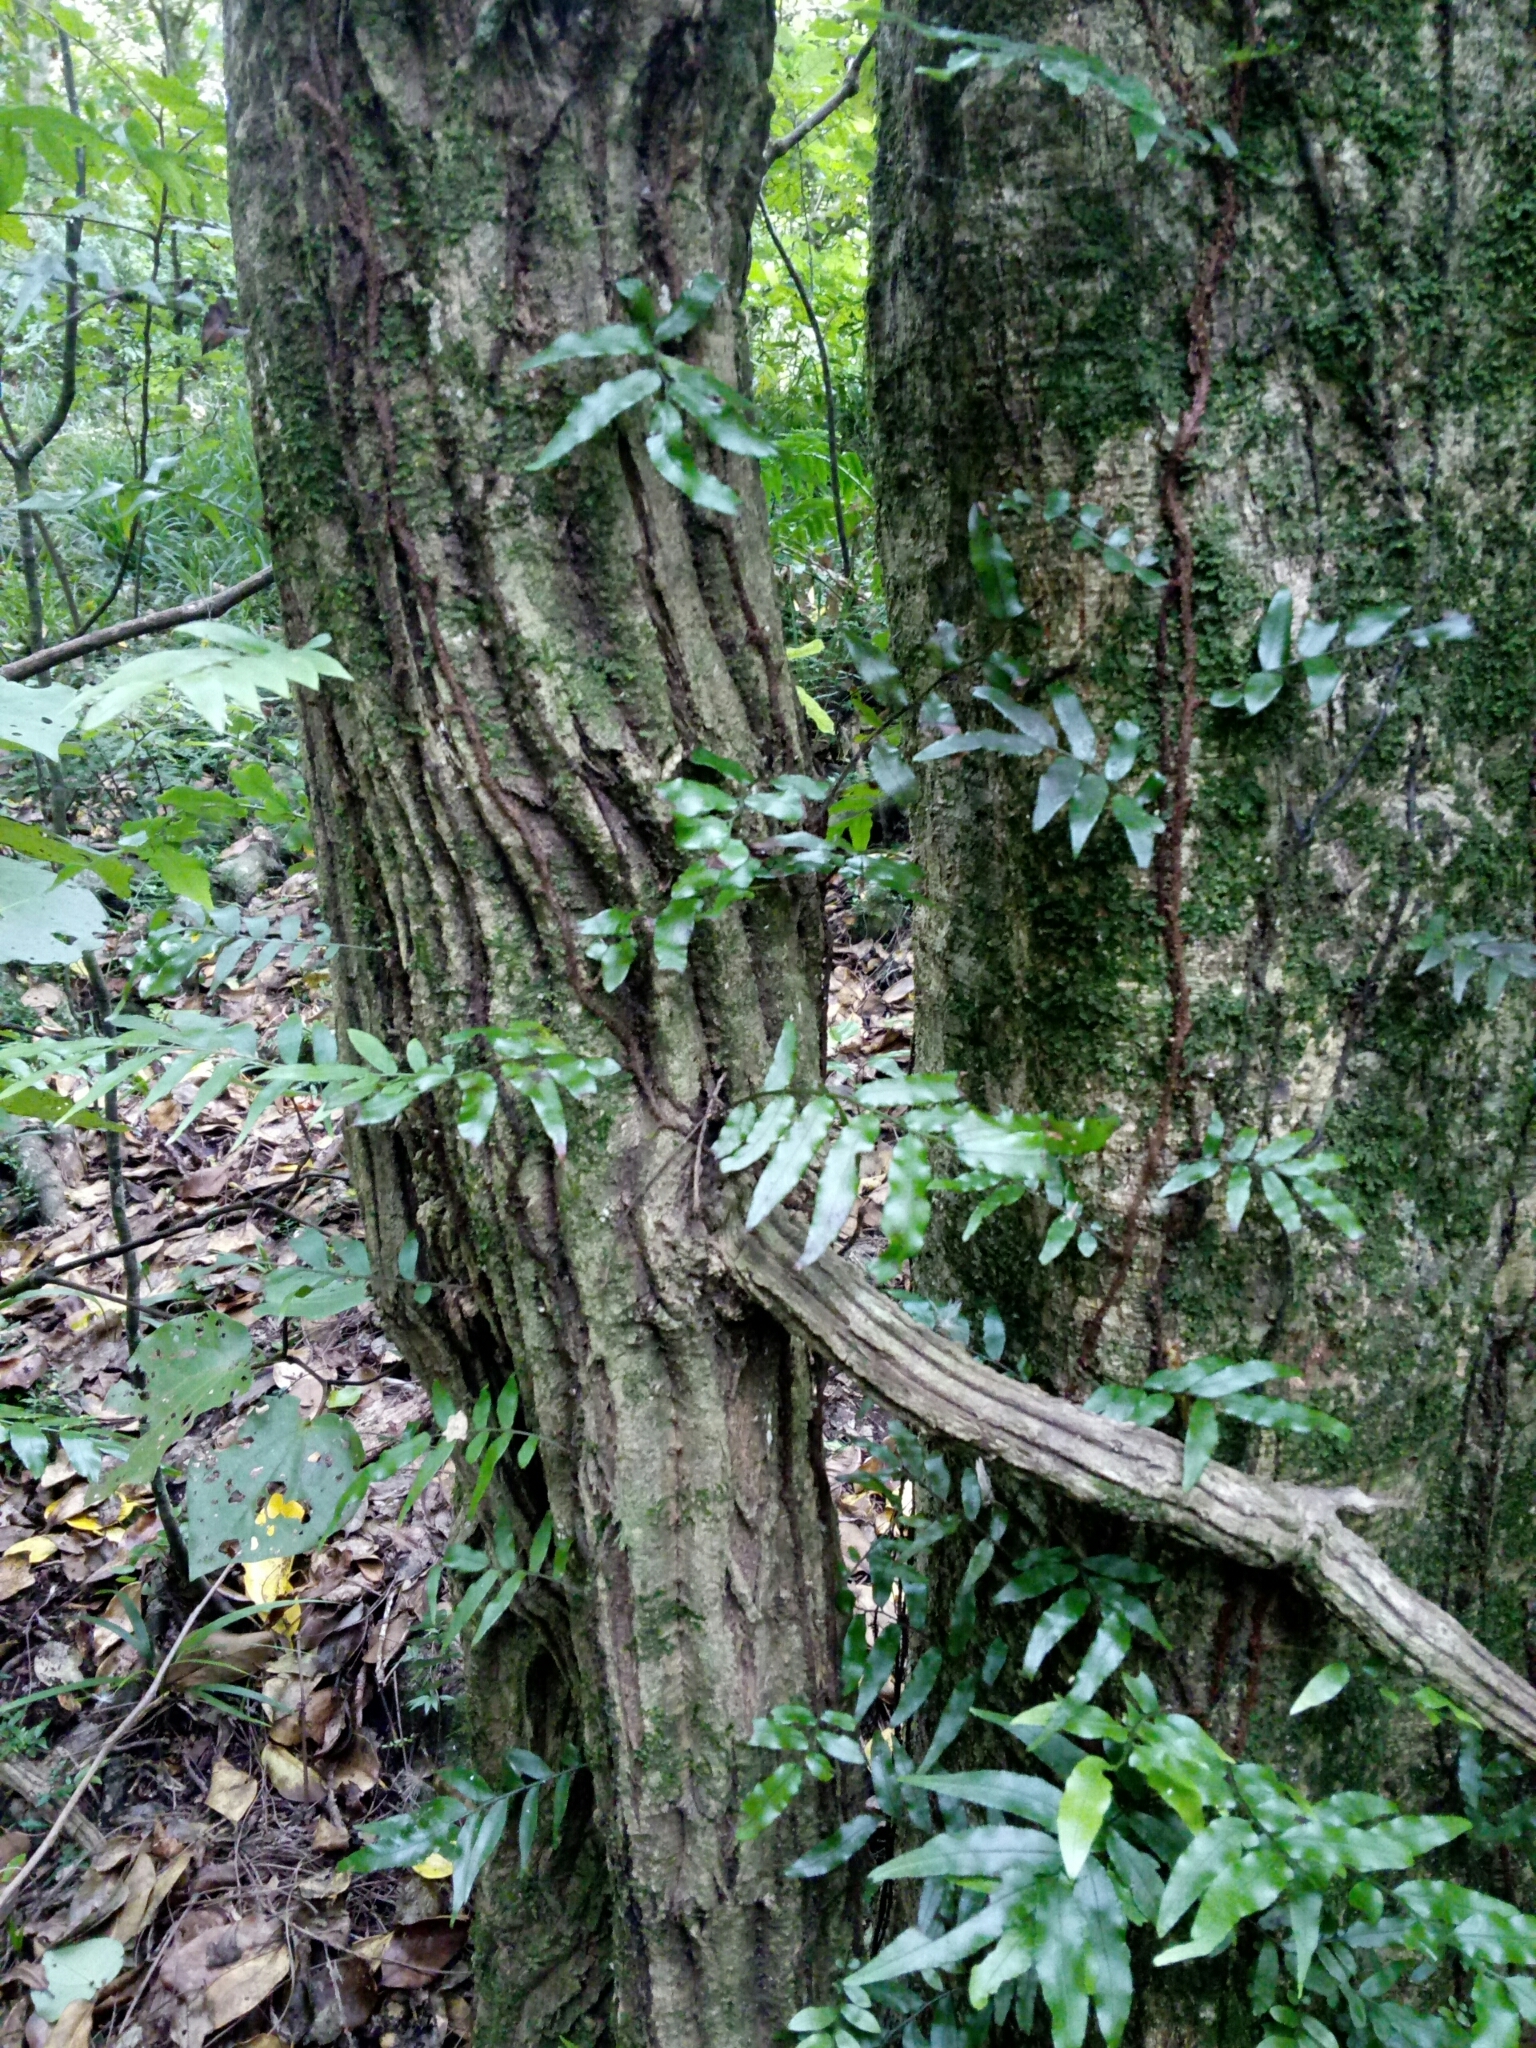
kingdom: Plantae
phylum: Tracheophyta
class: Magnoliopsida
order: Apiales
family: Griseliniaceae
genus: Griselinia
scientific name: Griselinia lucida
